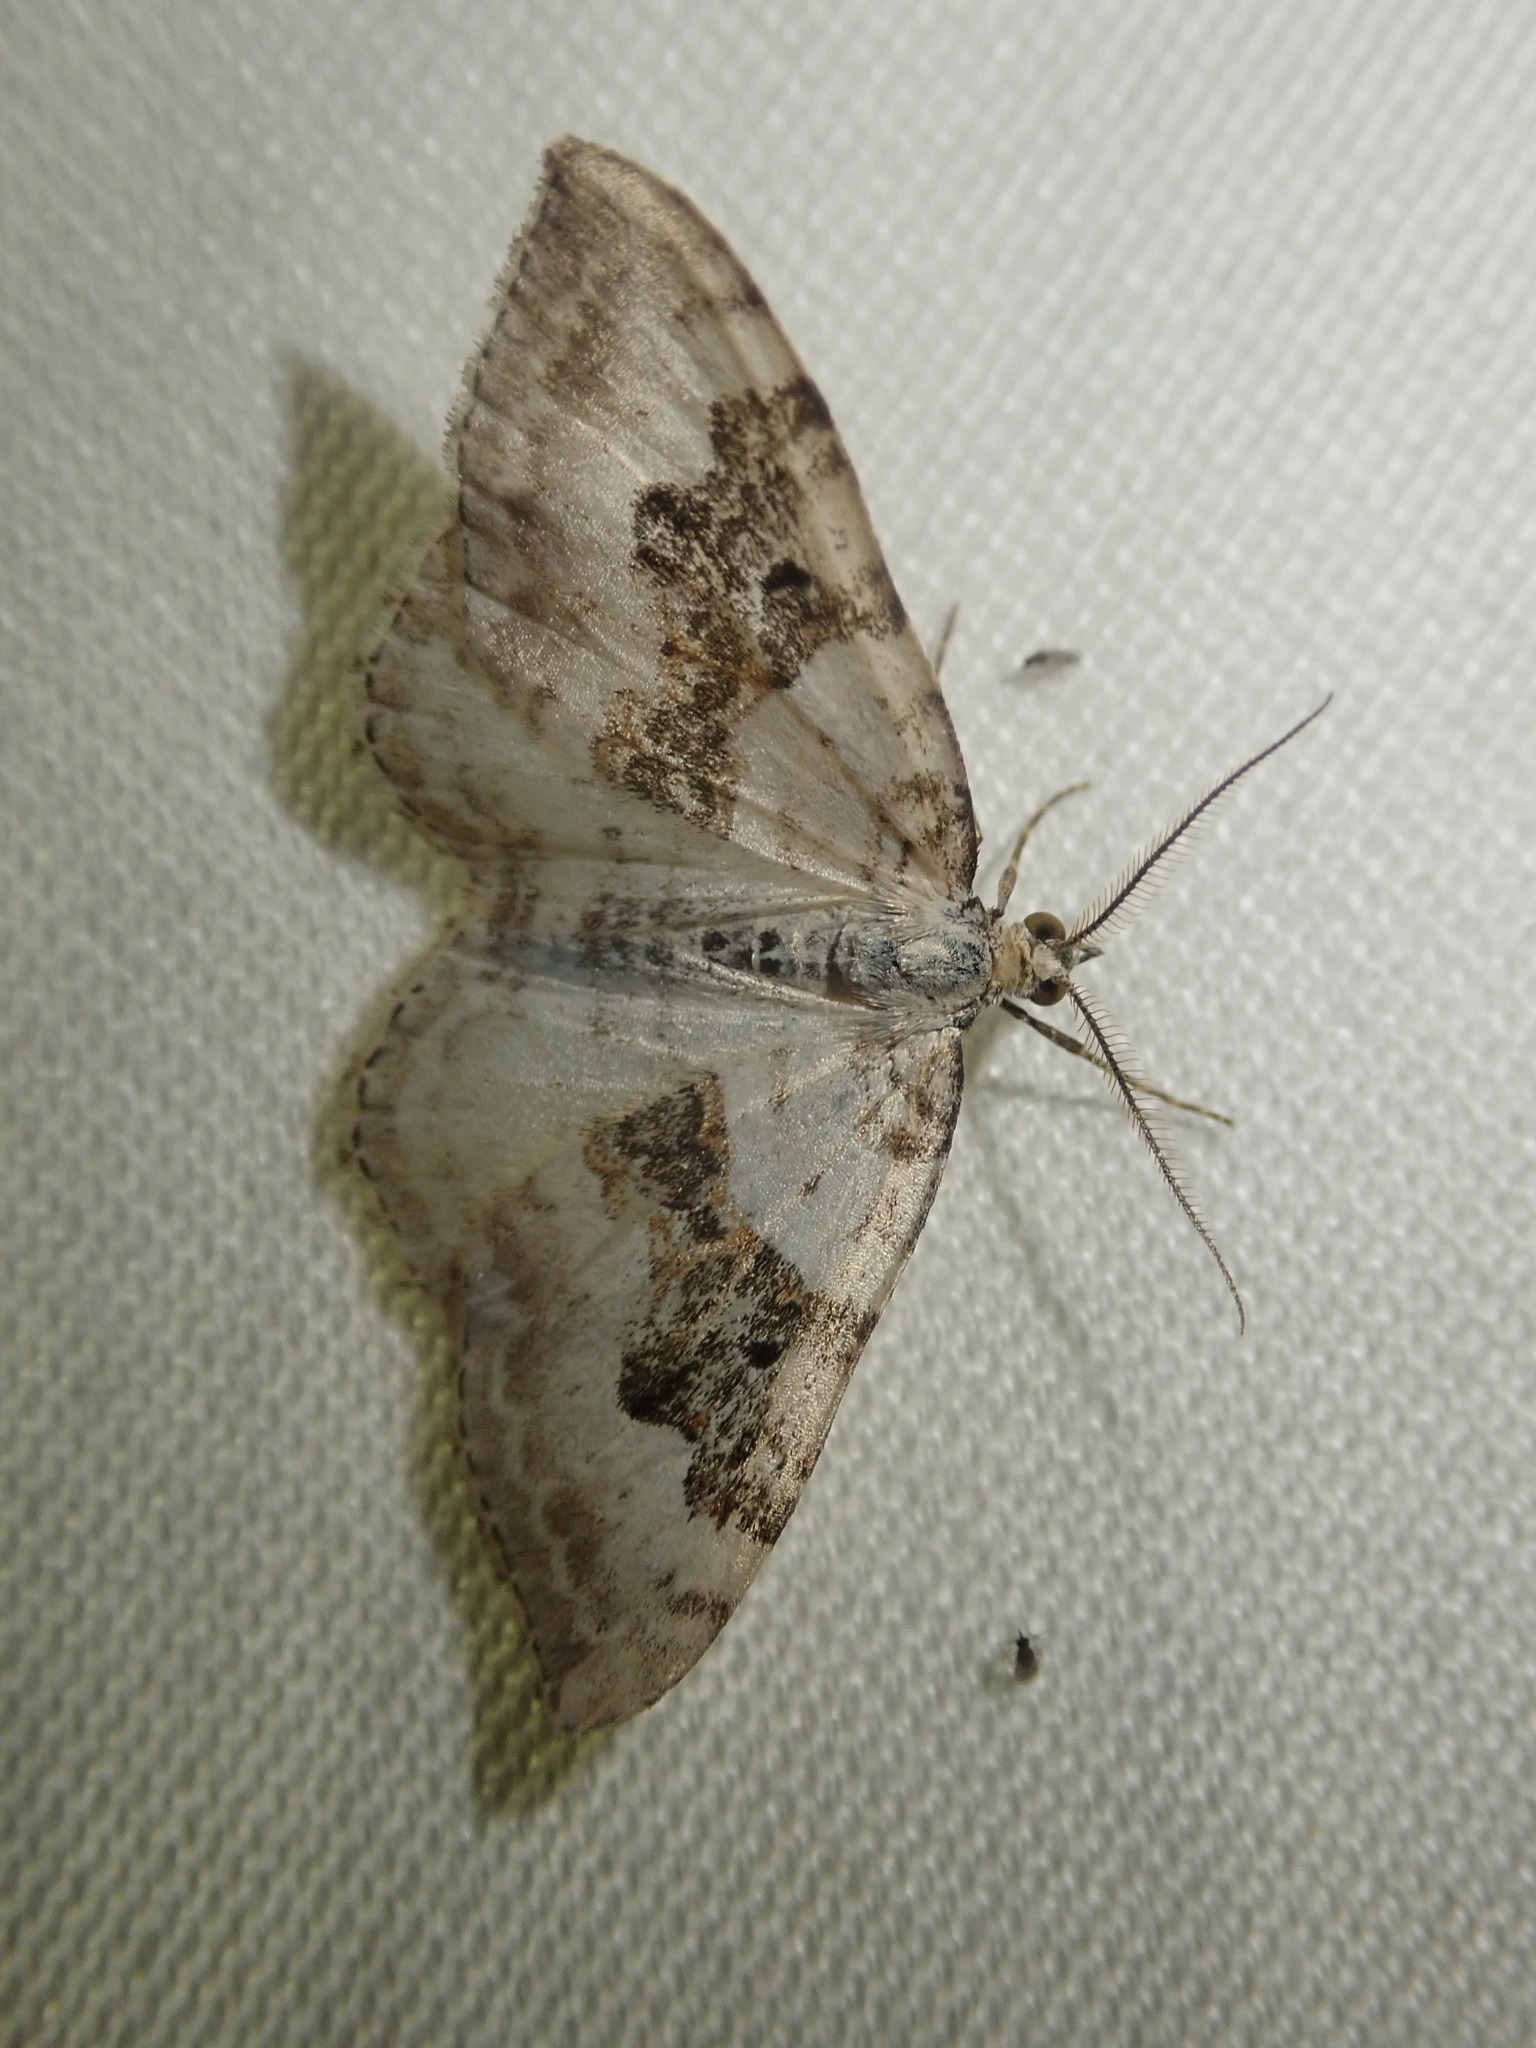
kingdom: Animalia
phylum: Arthropoda
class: Insecta
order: Lepidoptera
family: Geometridae
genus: Xanthorhoe
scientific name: Xanthorhoe montanata
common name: Silver-ground carpet
